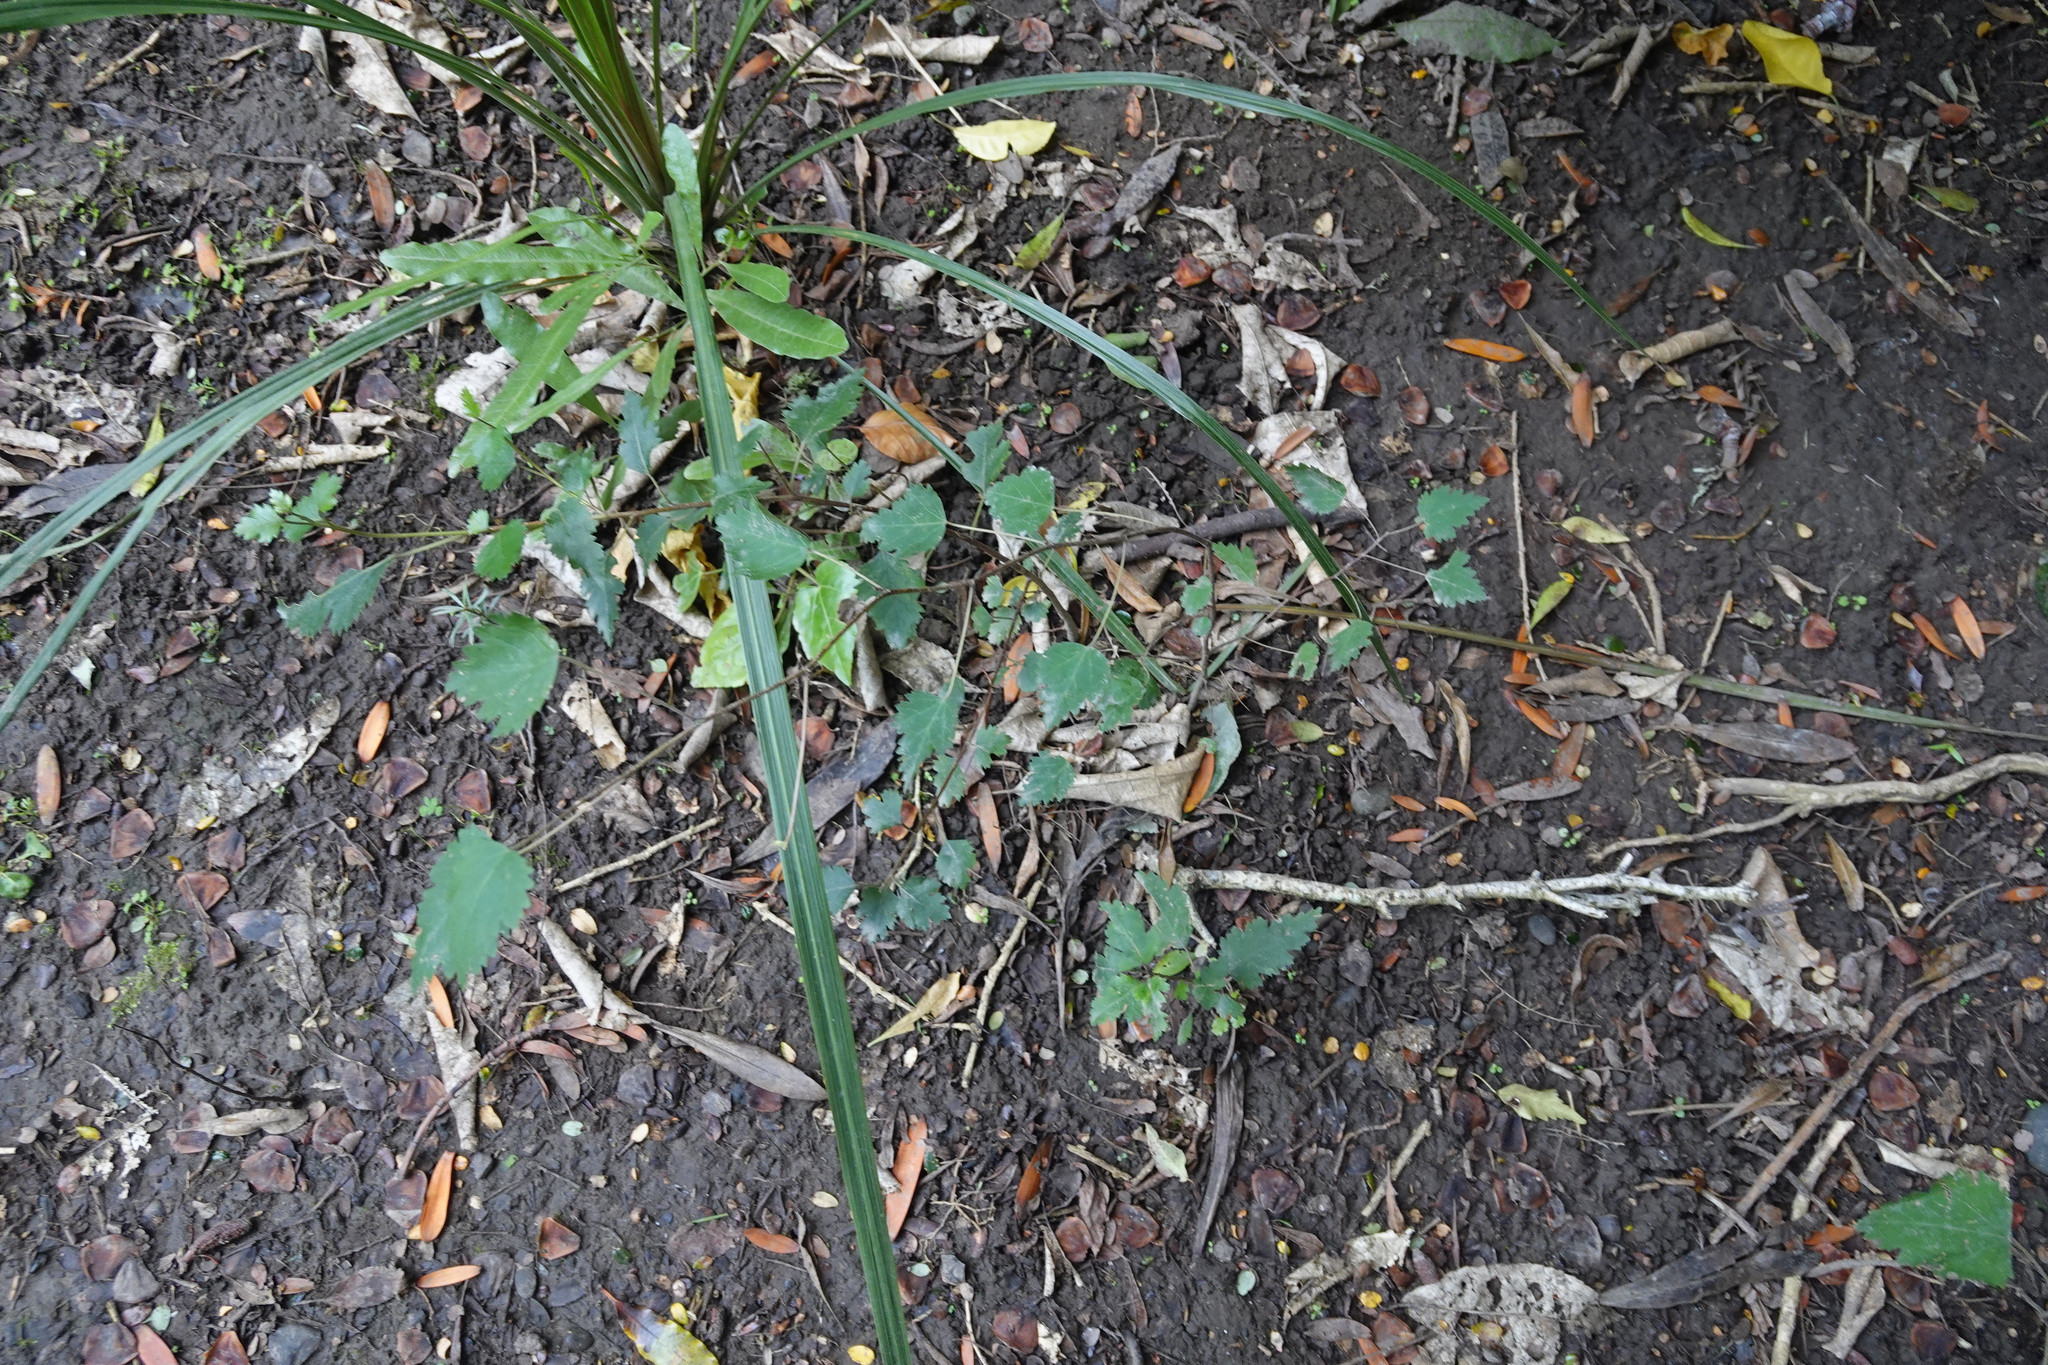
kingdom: Plantae
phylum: Tracheophyta
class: Magnoliopsida
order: Malvales
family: Malvaceae
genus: Plagianthus
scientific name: Plagianthus regius
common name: Manatu
